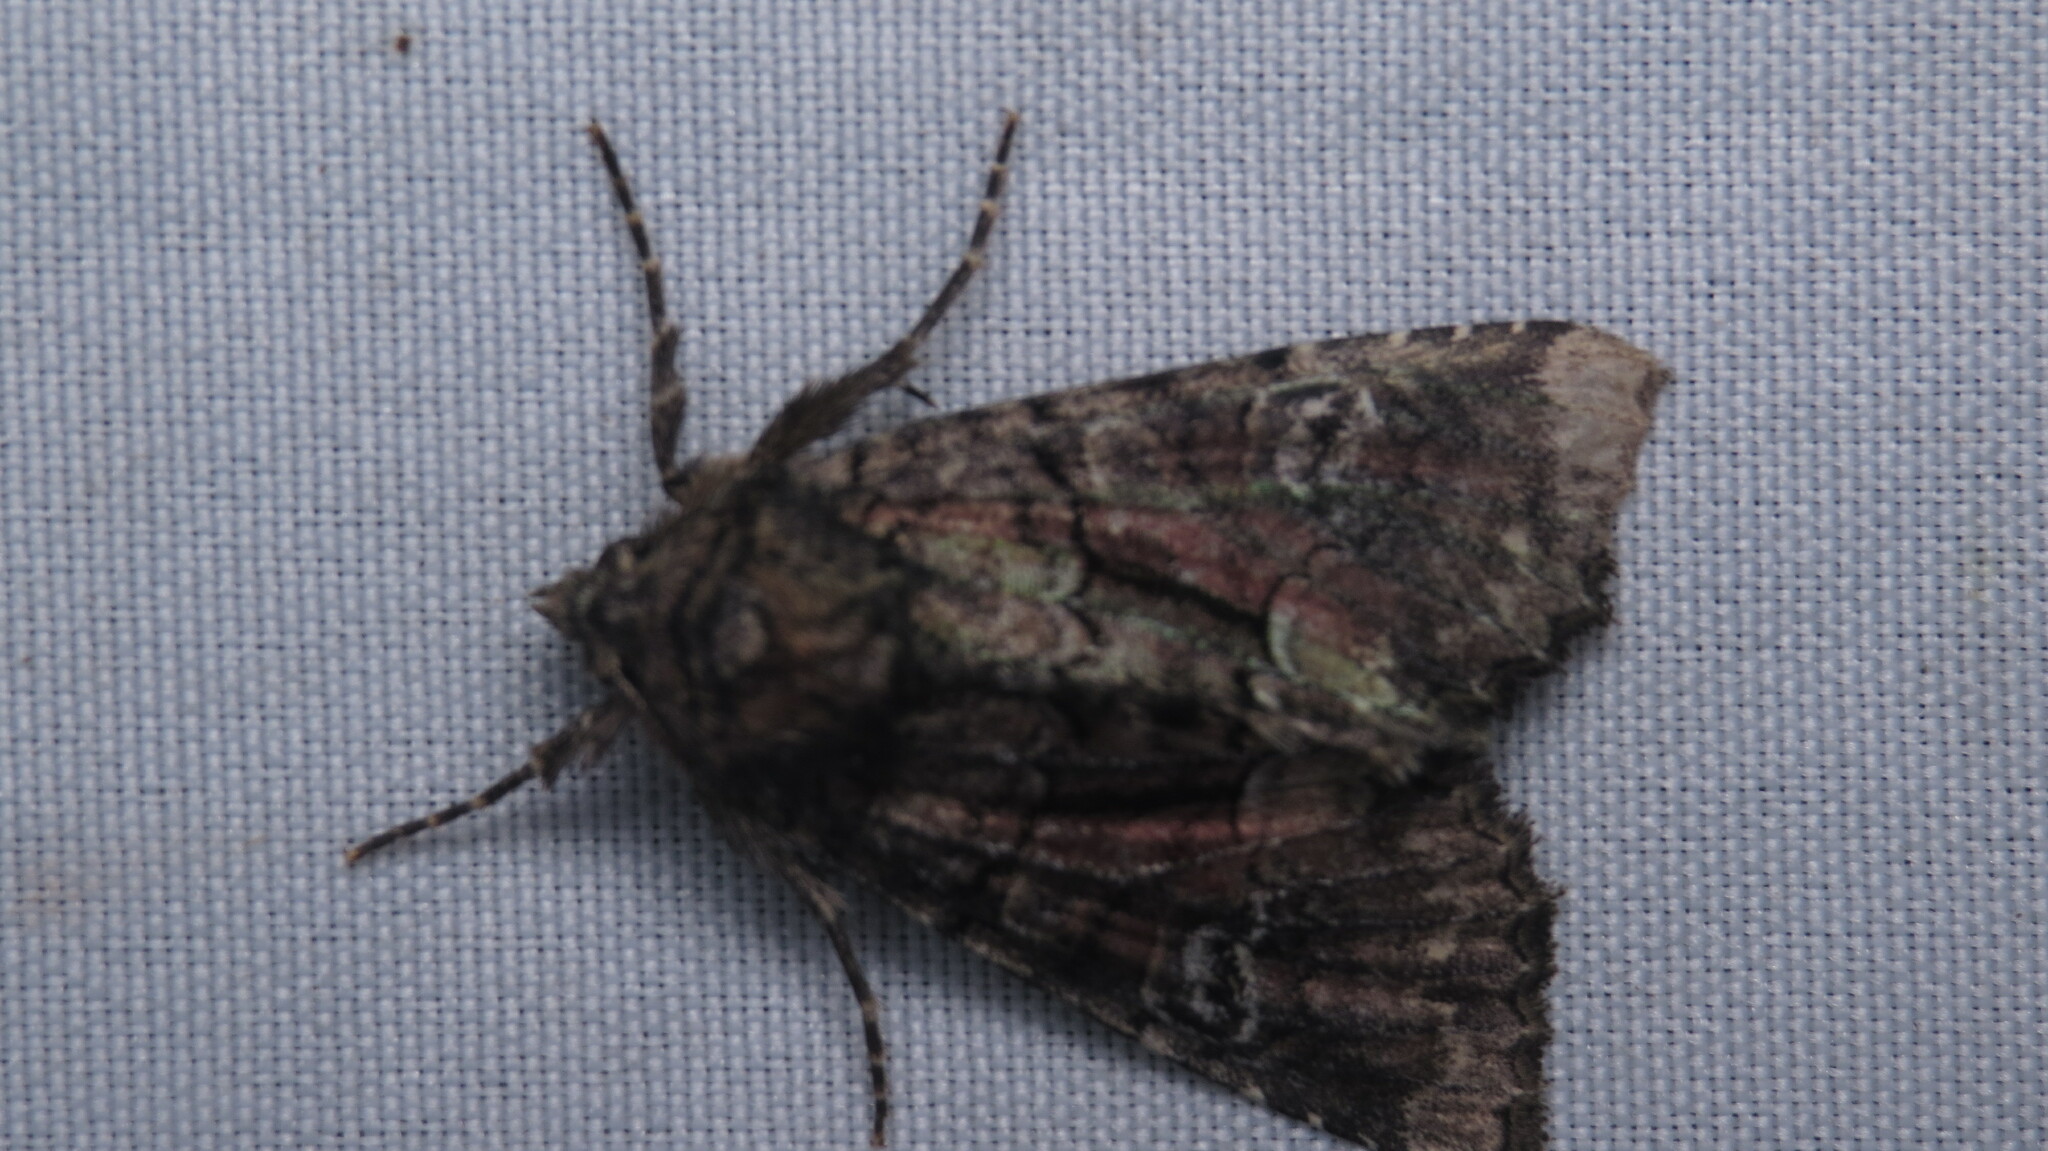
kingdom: Animalia
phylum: Arthropoda
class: Insecta
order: Lepidoptera
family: Noctuidae
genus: Fishia
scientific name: Fishia illocata
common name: Wandering brocade moth
